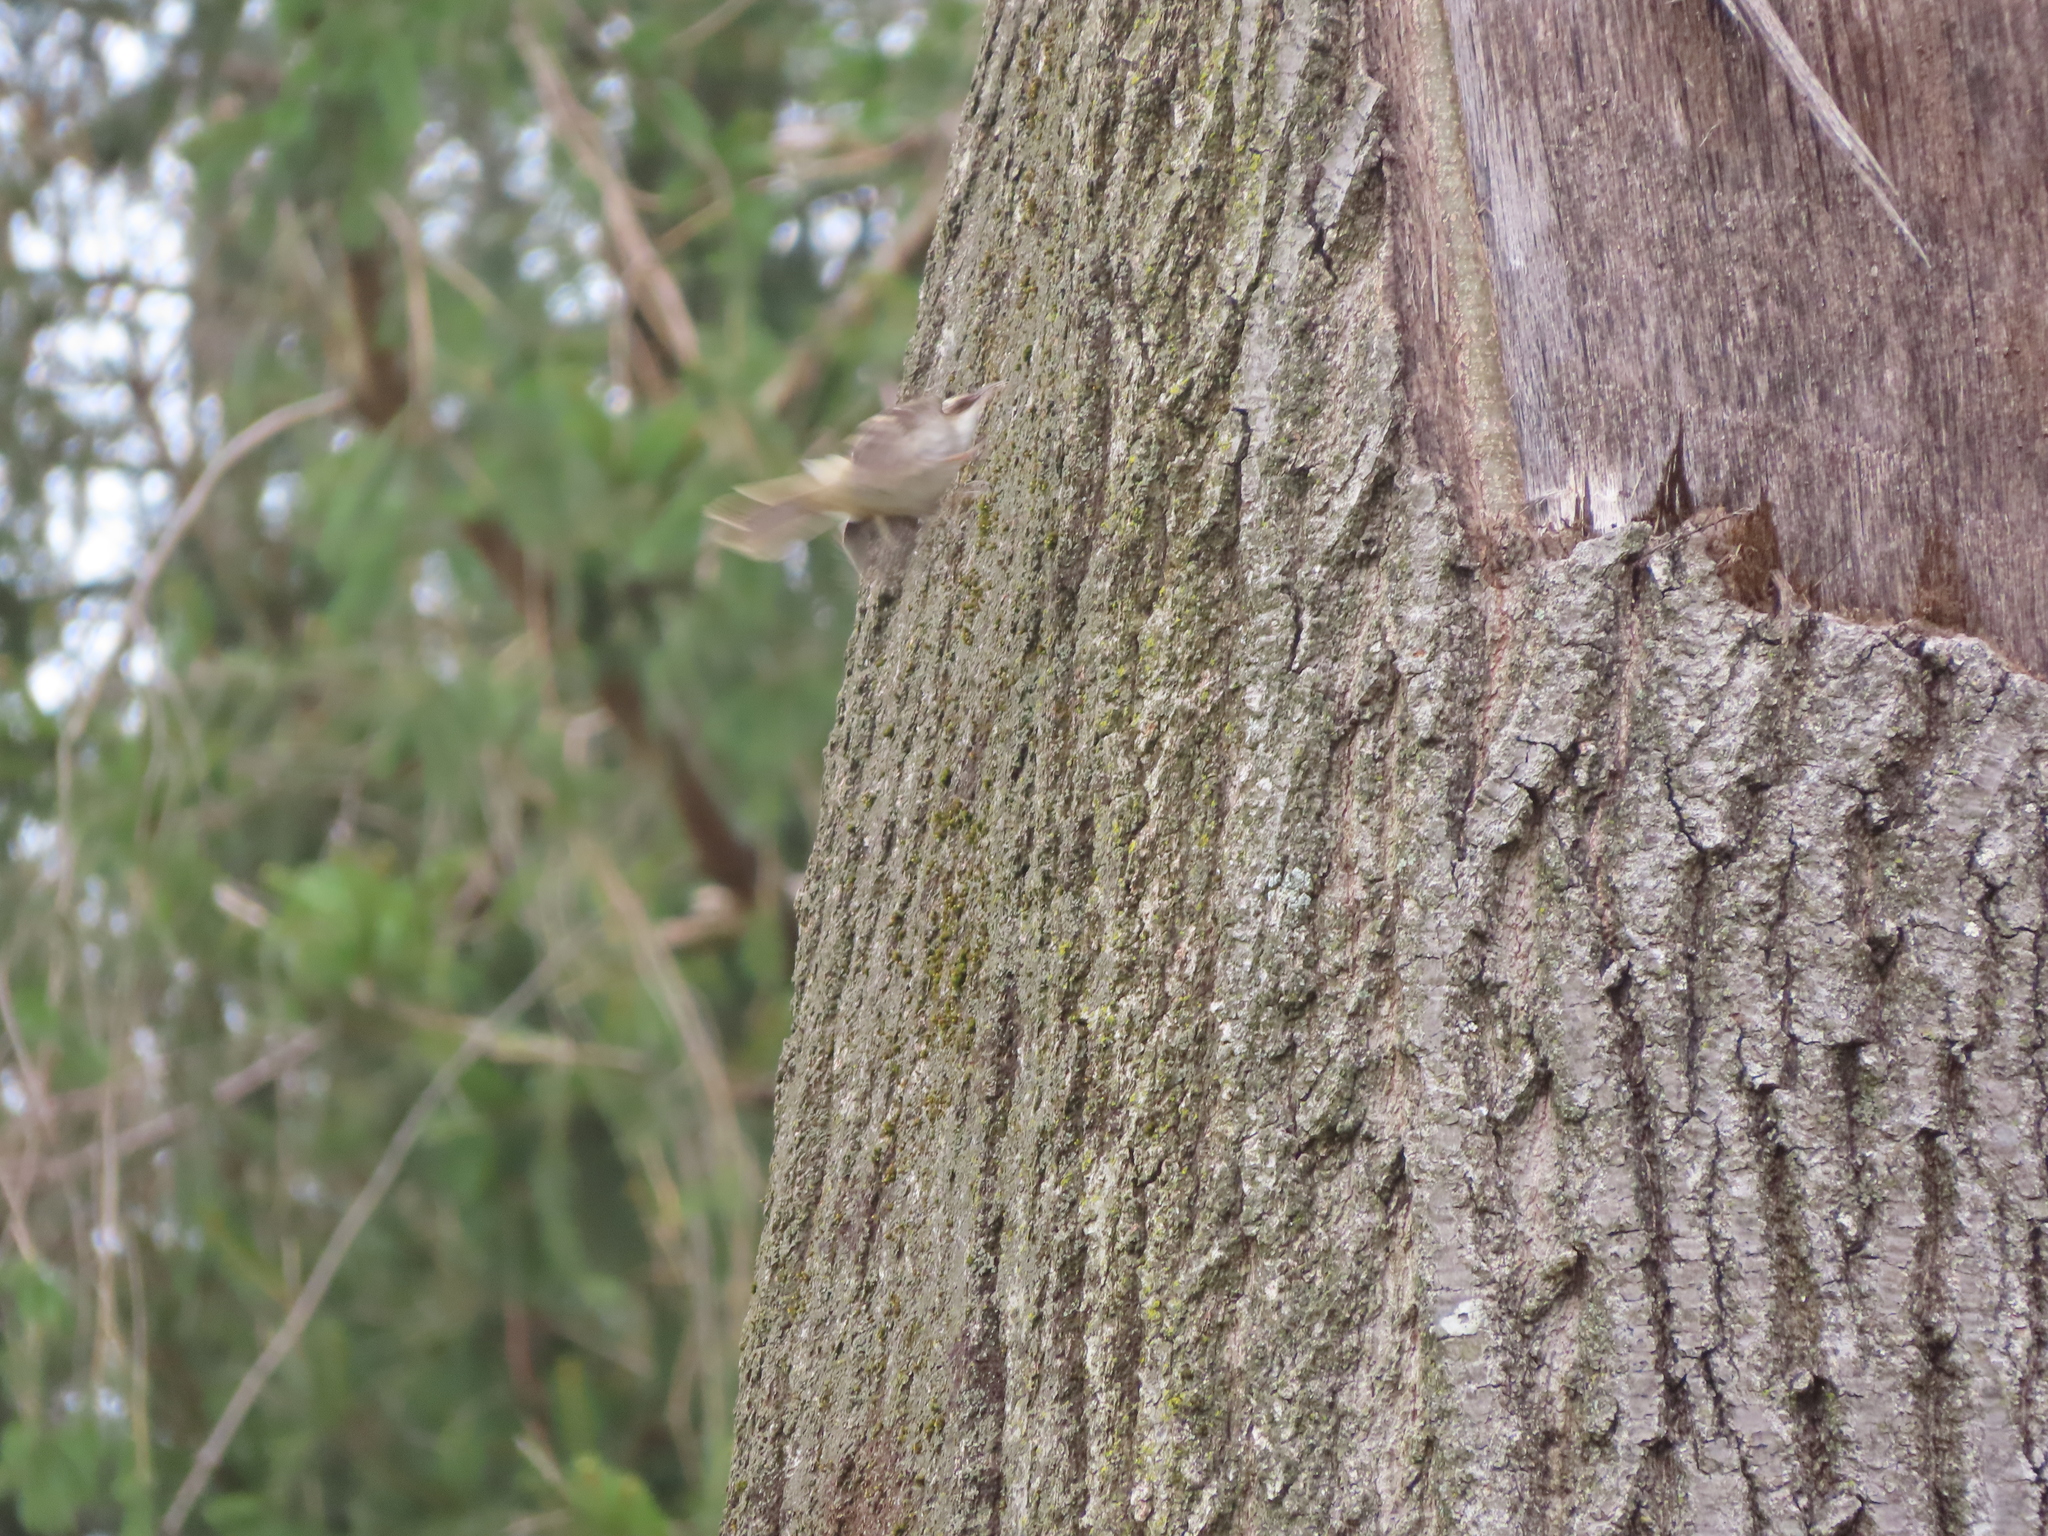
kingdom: Animalia
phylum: Chordata
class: Aves
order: Passeriformes
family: Certhiidae
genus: Certhia
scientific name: Certhia americana
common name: Brown creeper
